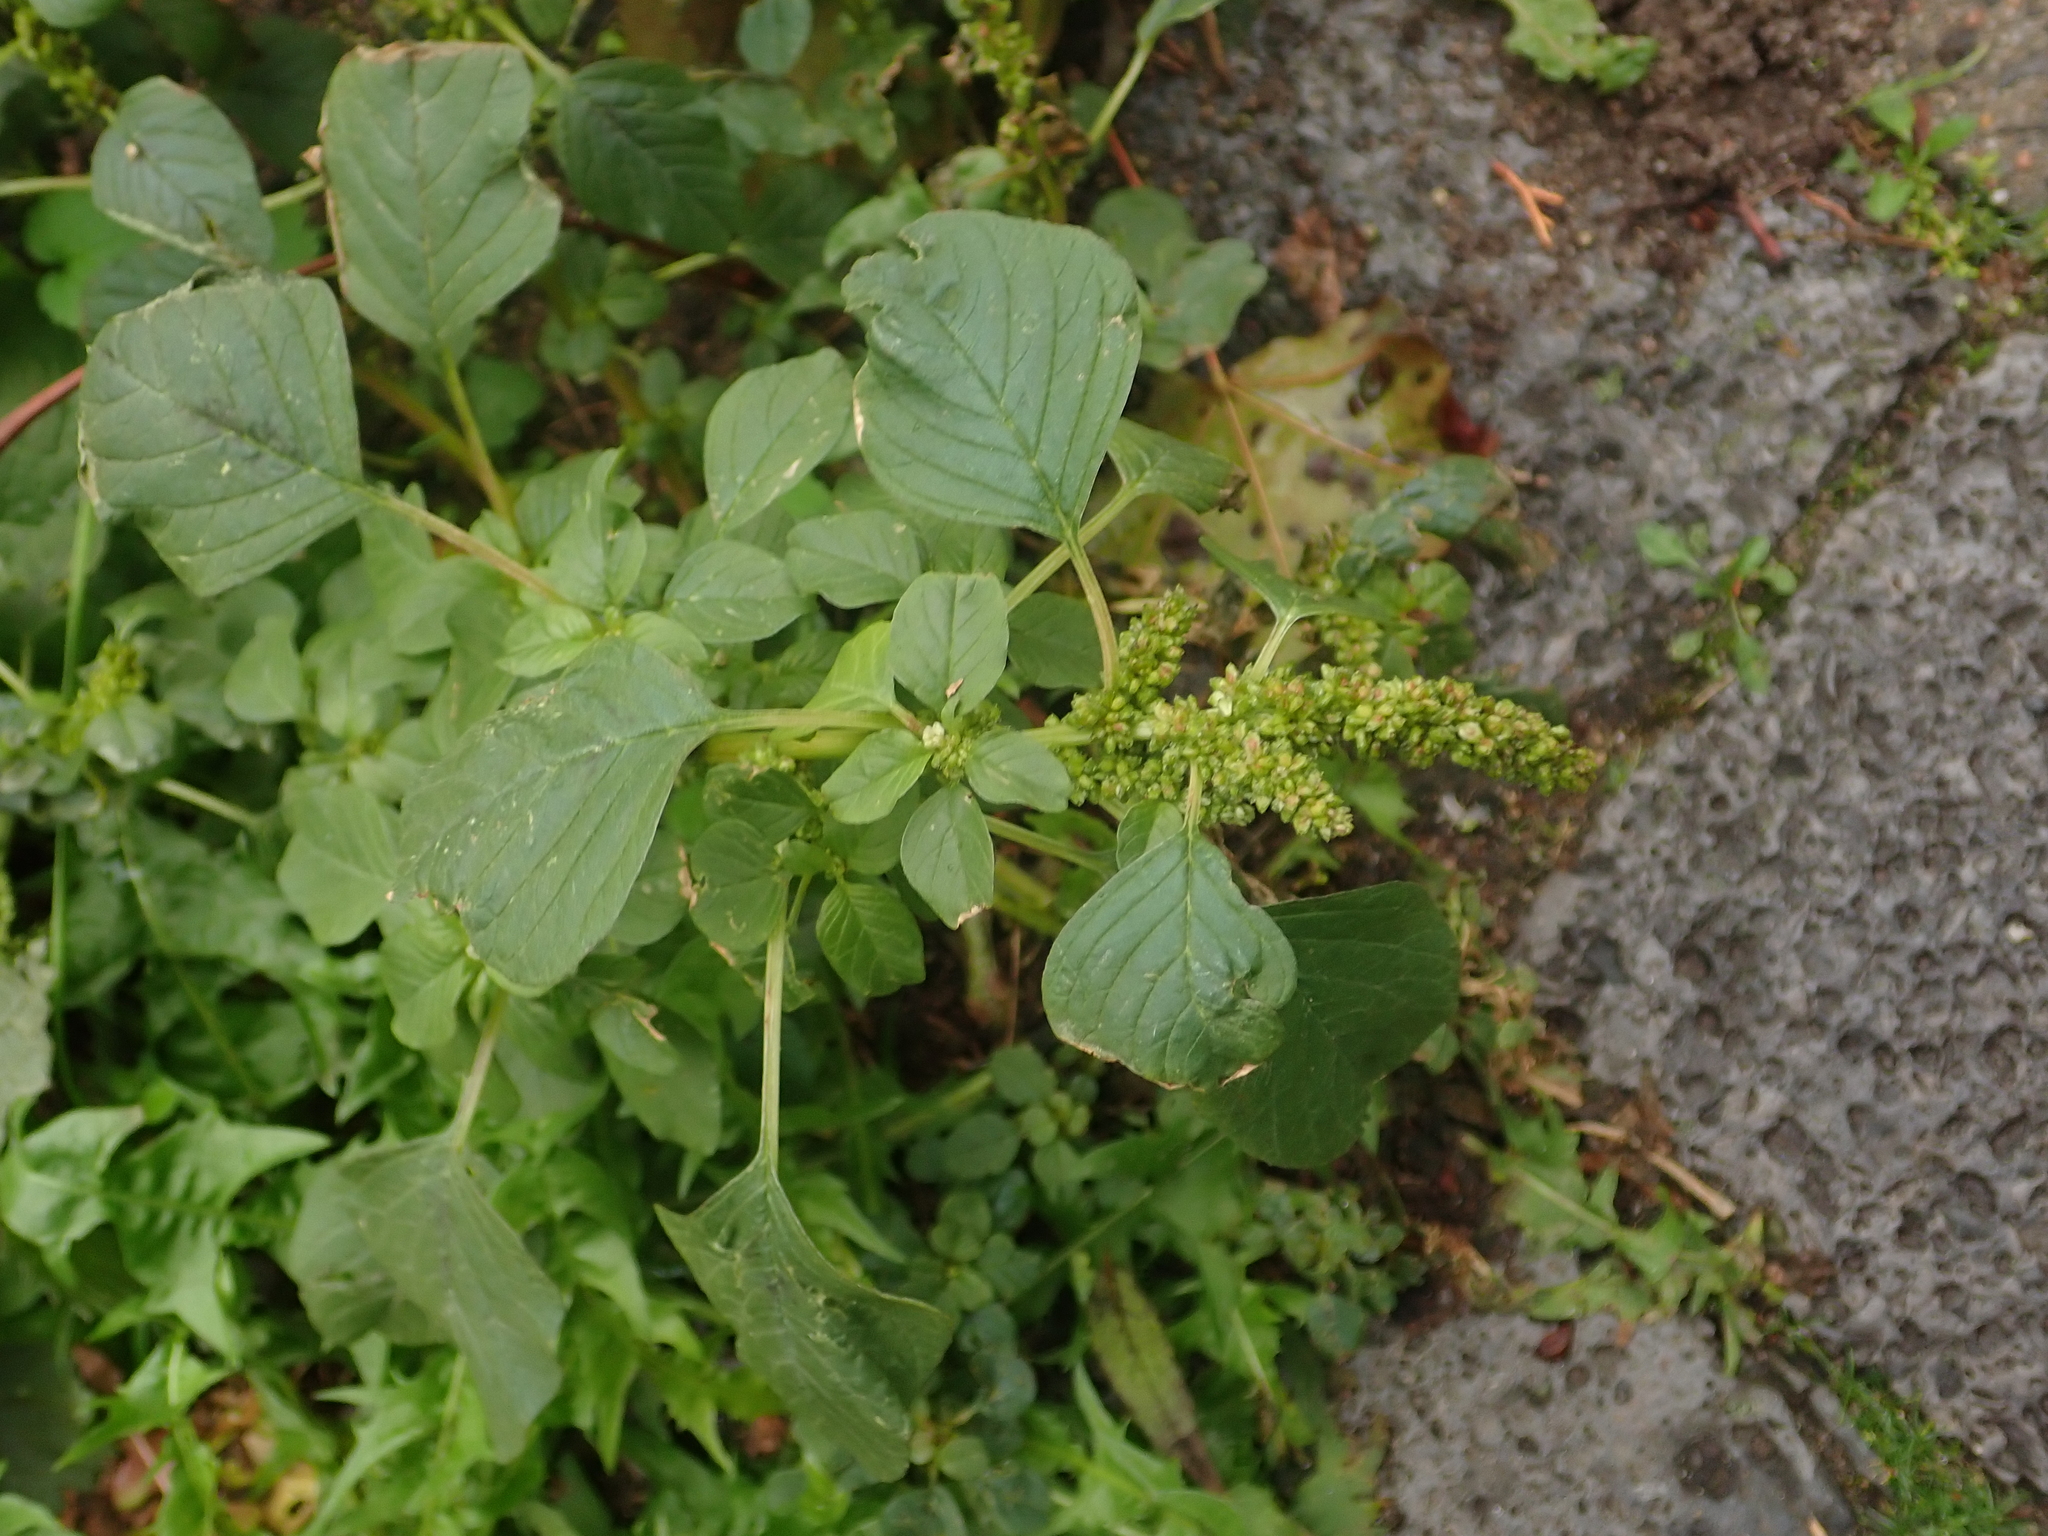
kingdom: Plantae
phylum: Tracheophyta
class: Magnoliopsida
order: Caryophyllales
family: Amaranthaceae
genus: Amaranthus
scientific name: Amaranthus retroflexus
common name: Redroot amaranth
